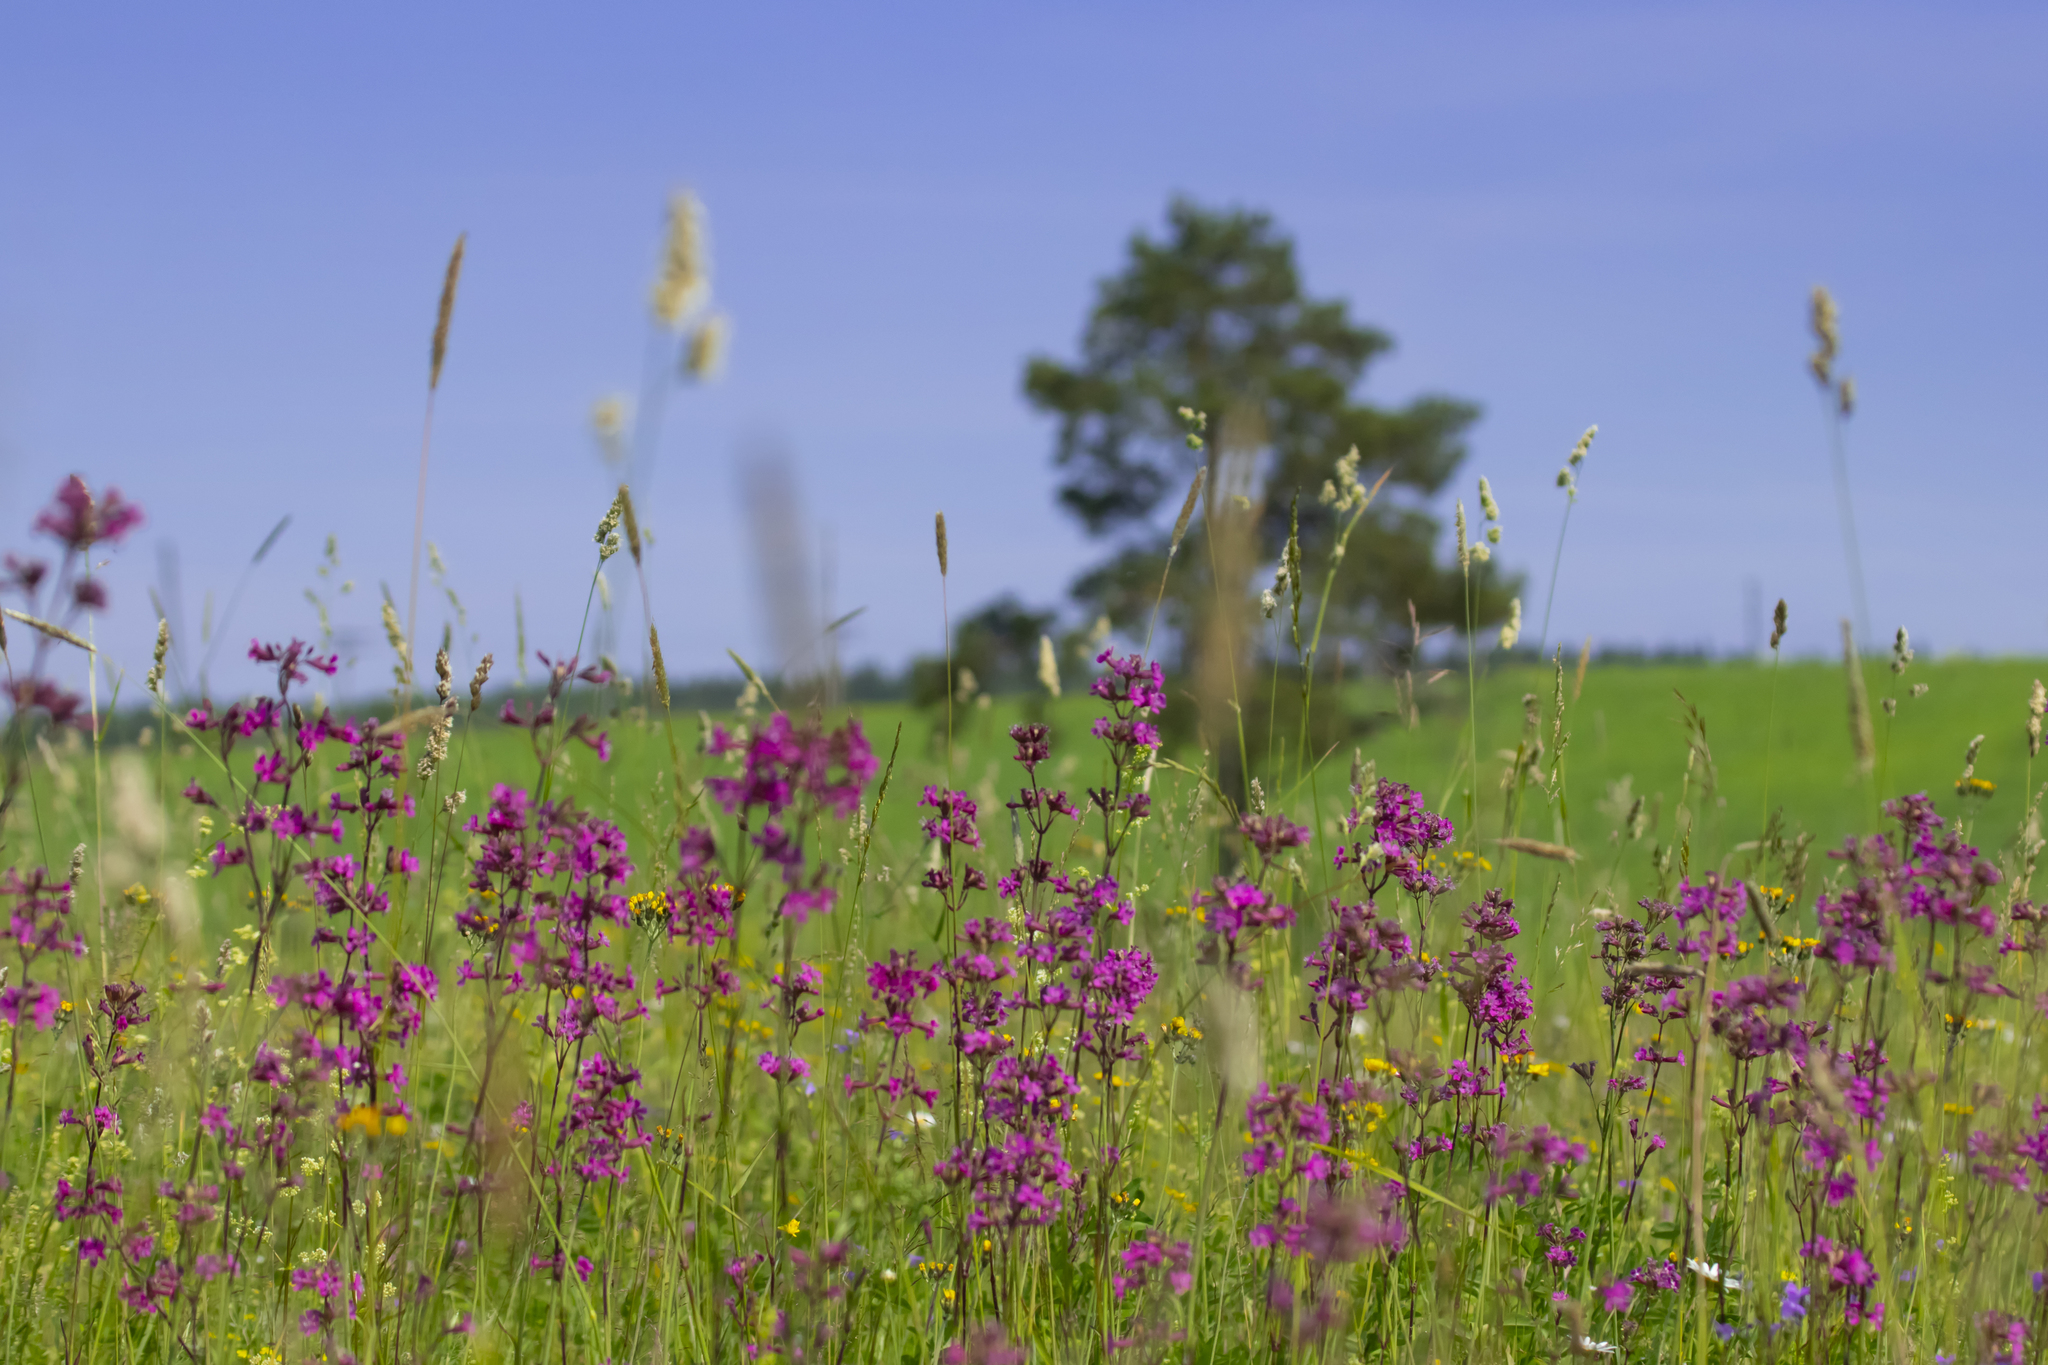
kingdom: Plantae
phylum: Tracheophyta
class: Magnoliopsida
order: Caryophyllales
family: Caryophyllaceae
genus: Viscaria
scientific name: Viscaria vulgaris
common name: Clammy campion
